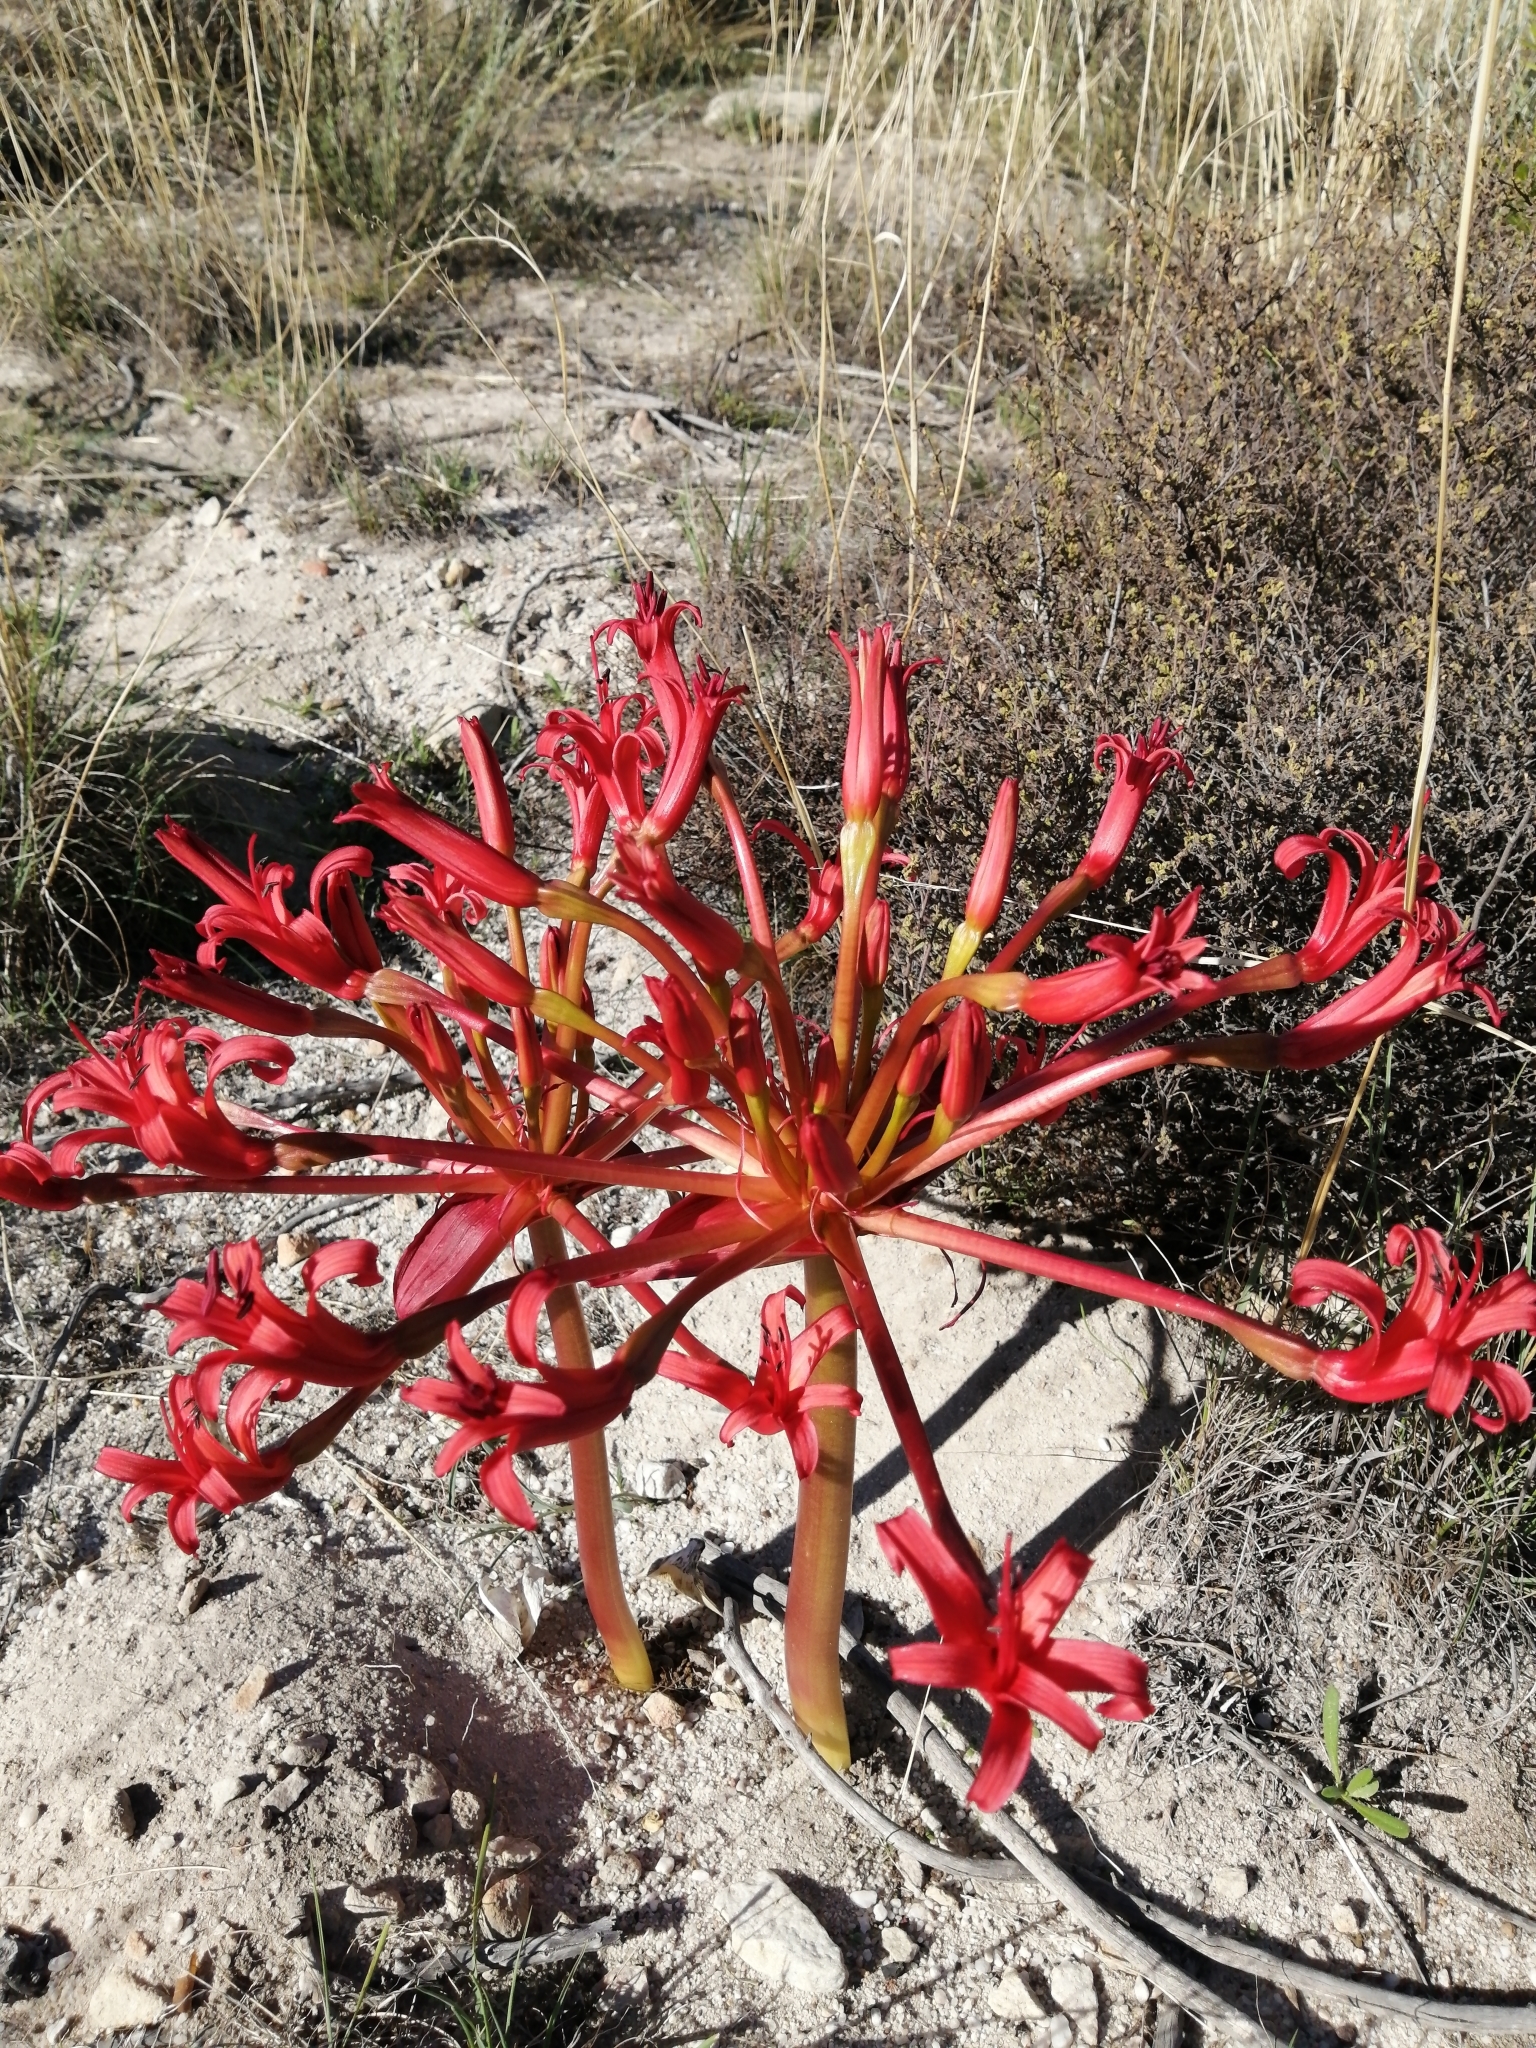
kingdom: Plantae
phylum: Tracheophyta
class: Liliopsida
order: Asparagales
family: Amaryllidaceae
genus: Brunsvigia
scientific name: Brunsvigia orientalis
